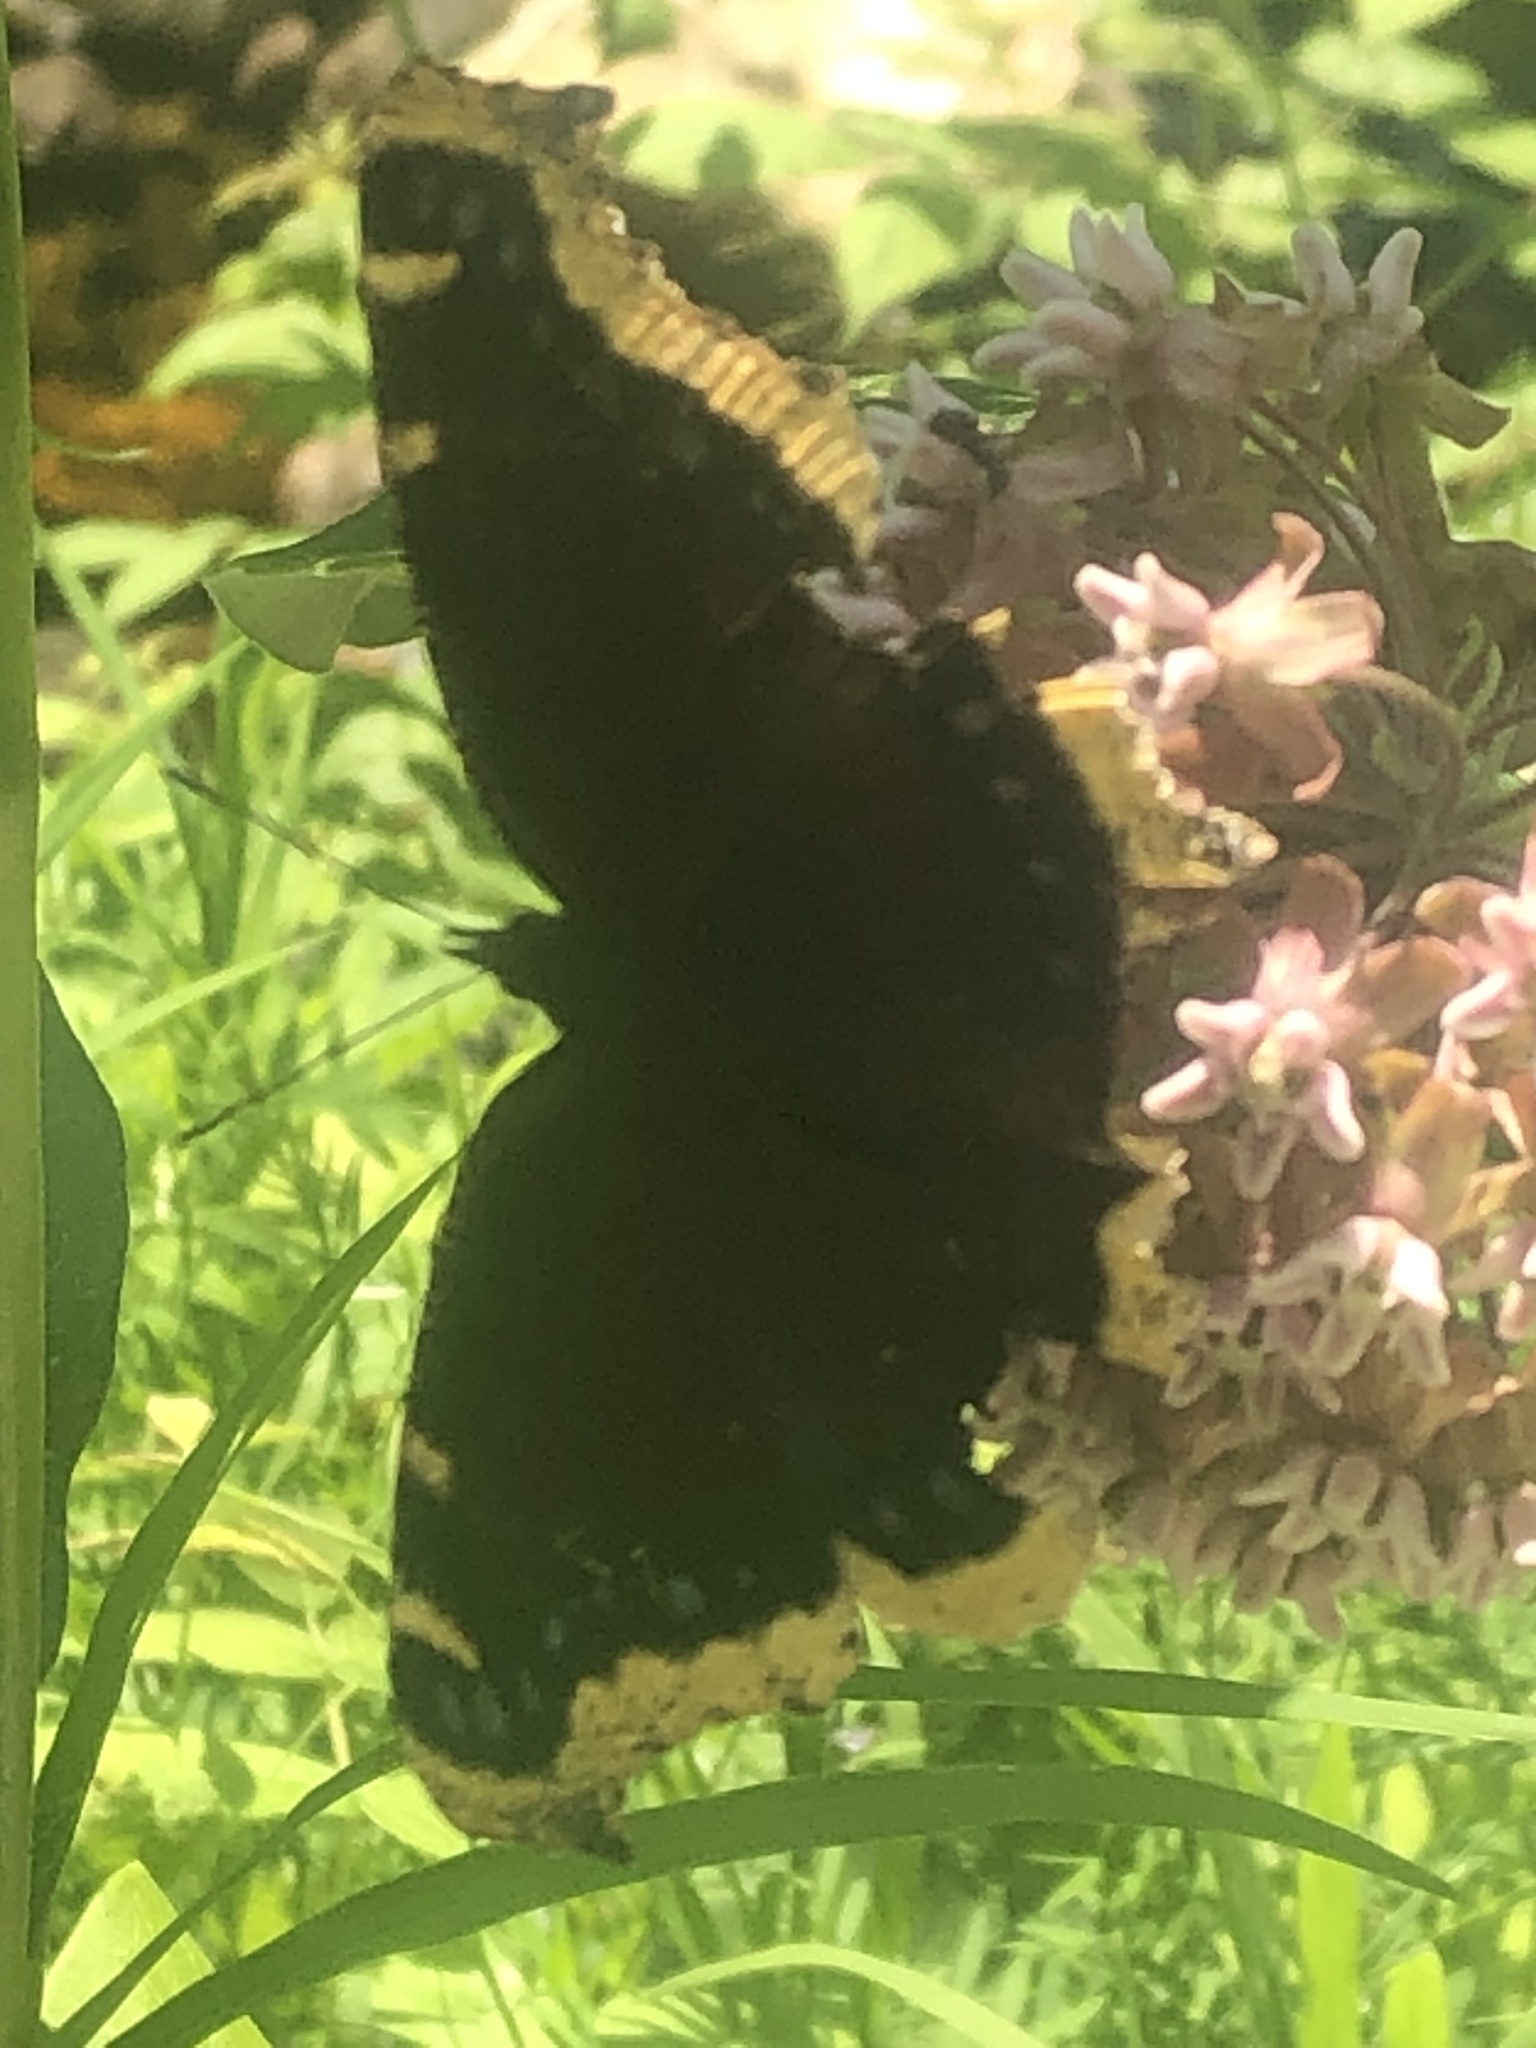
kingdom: Animalia
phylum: Arthropoda
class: Insecta
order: Lepidoptera
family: Nymphalidae
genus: Nymphalis
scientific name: Nymphalis antiopa
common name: Camberwell beauty
